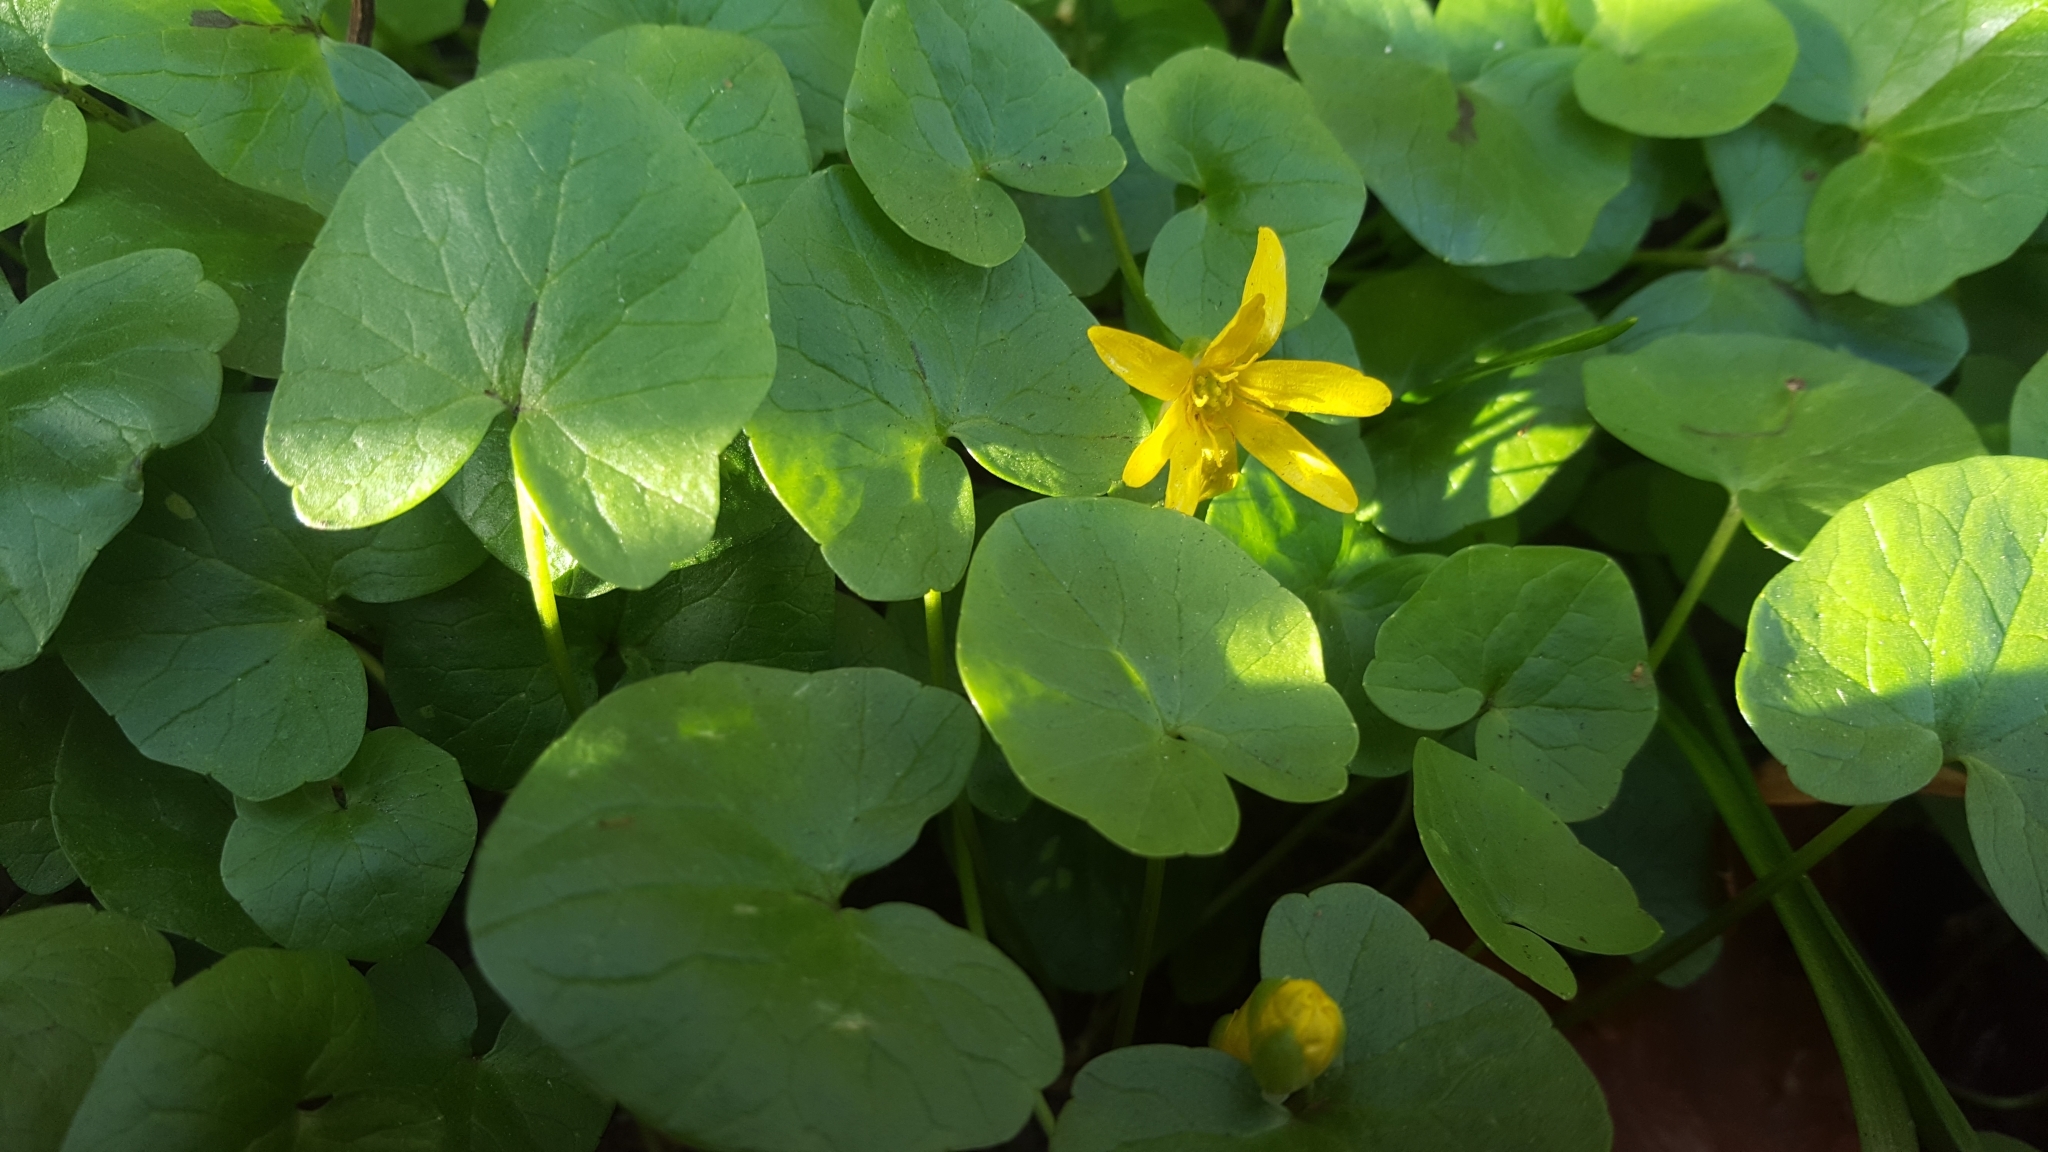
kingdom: Plantae
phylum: Tracheophyta
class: Magnoliopsida
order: Ranunculales
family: Ranunculaceae
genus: Ficaria
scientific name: Ficaria verna
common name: Lesser celandine
